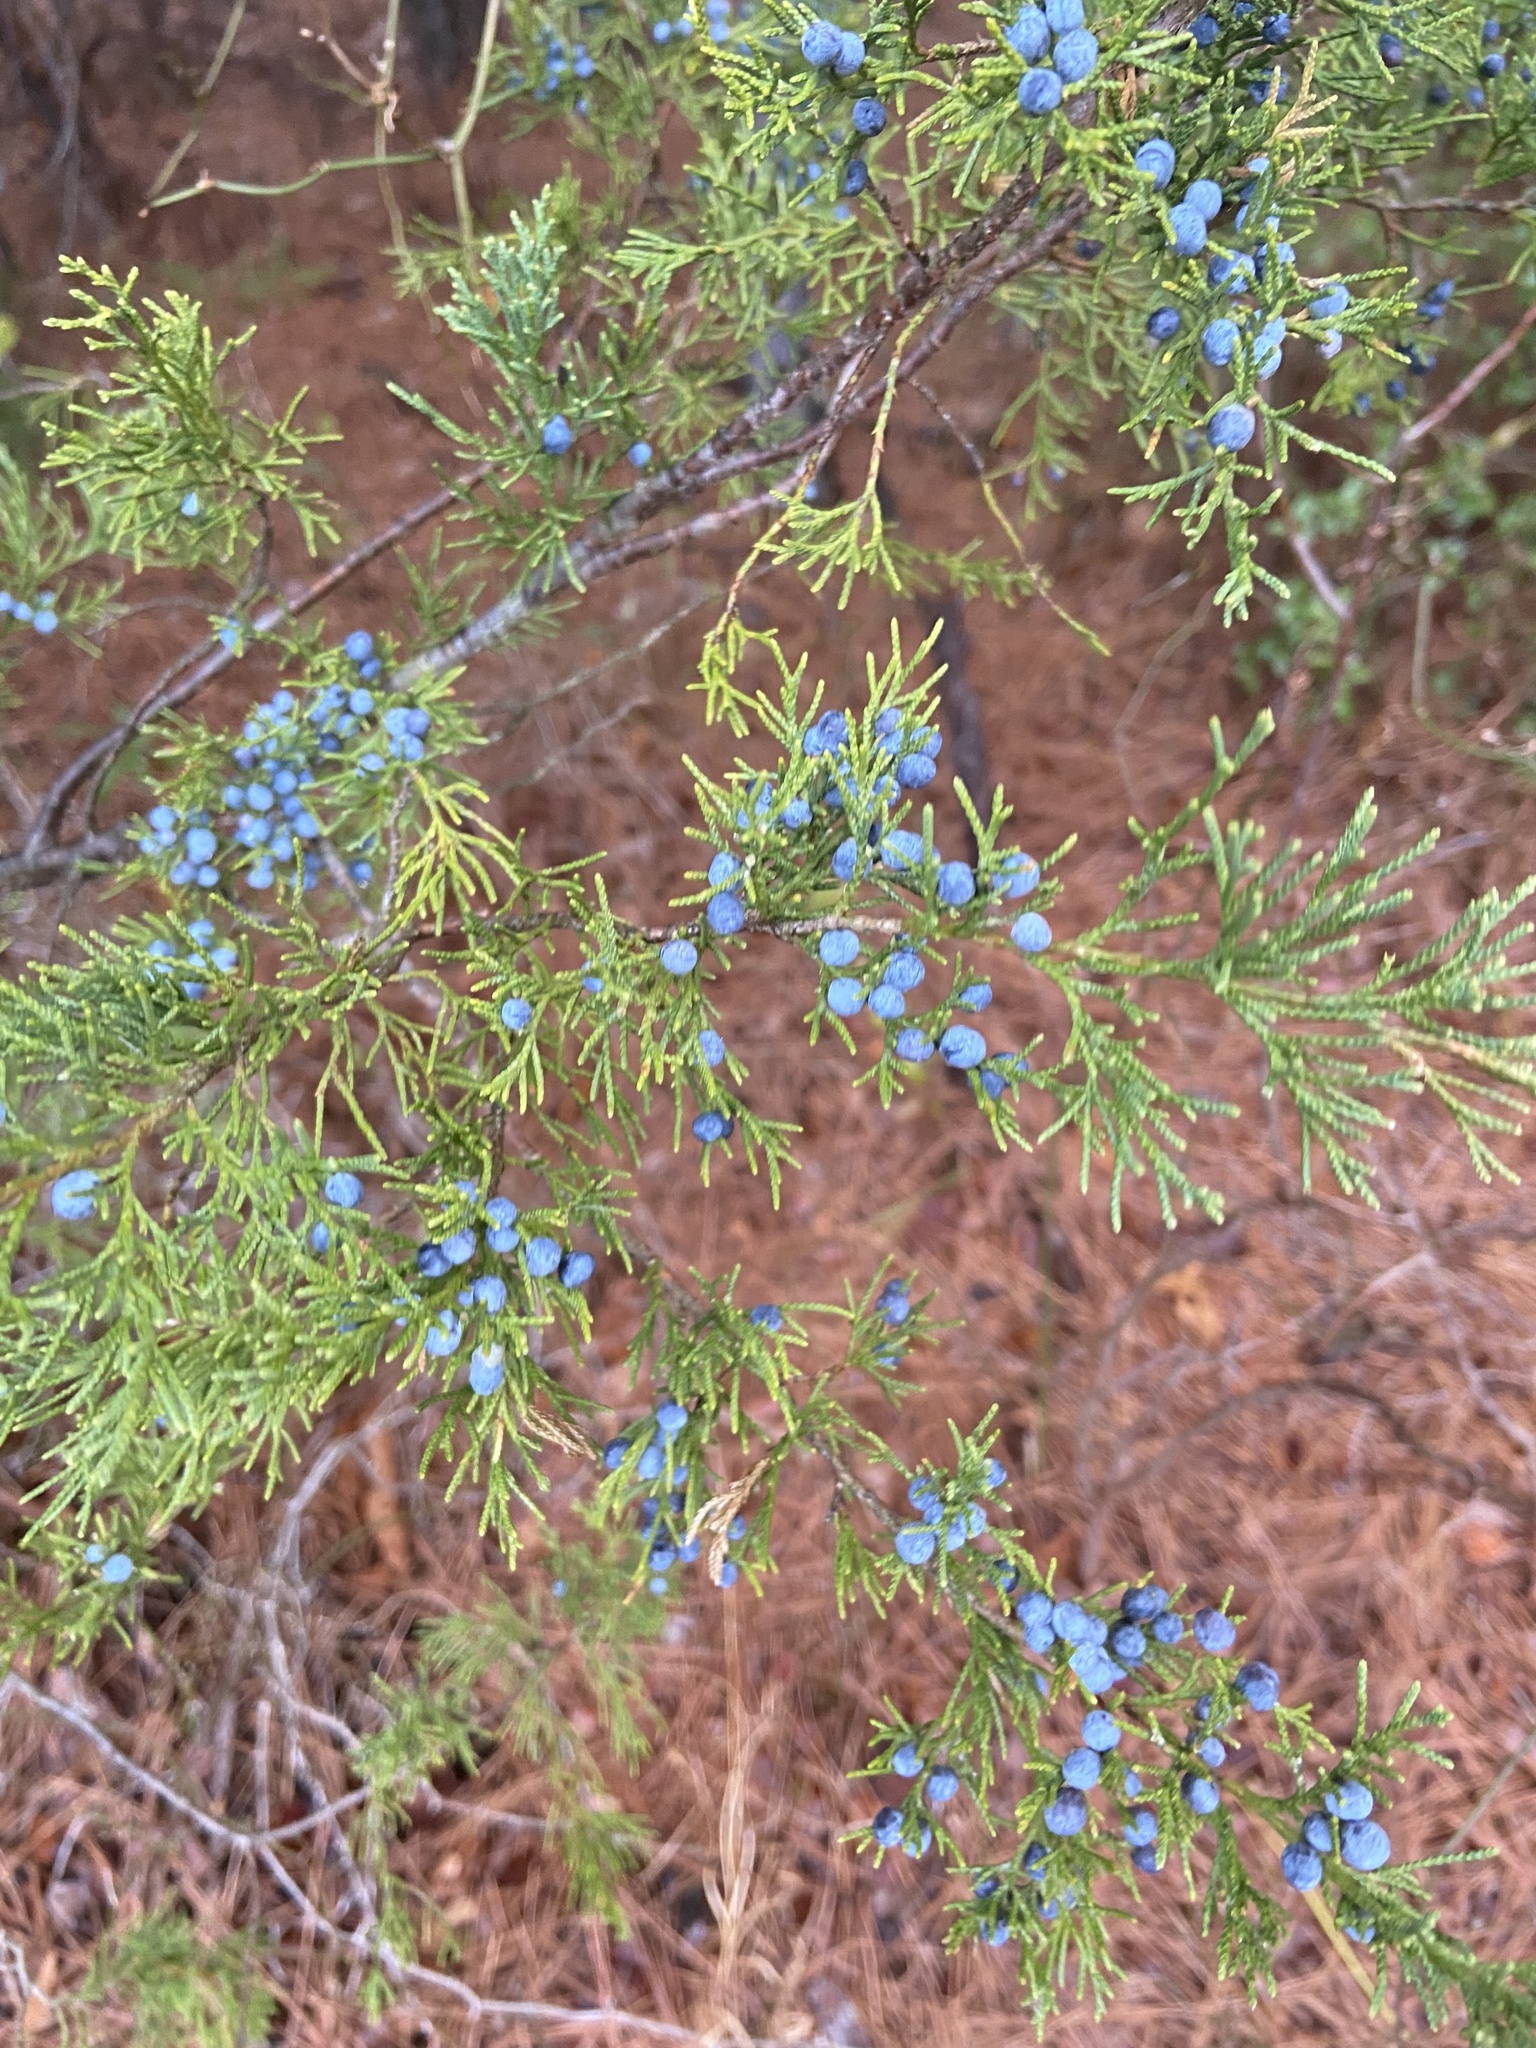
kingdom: Plantae
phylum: Tracheophyta
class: Pinopsida
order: Pinales
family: Cupressaceae
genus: Juniperus
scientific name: Juniperus virginiana
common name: Red juniper
